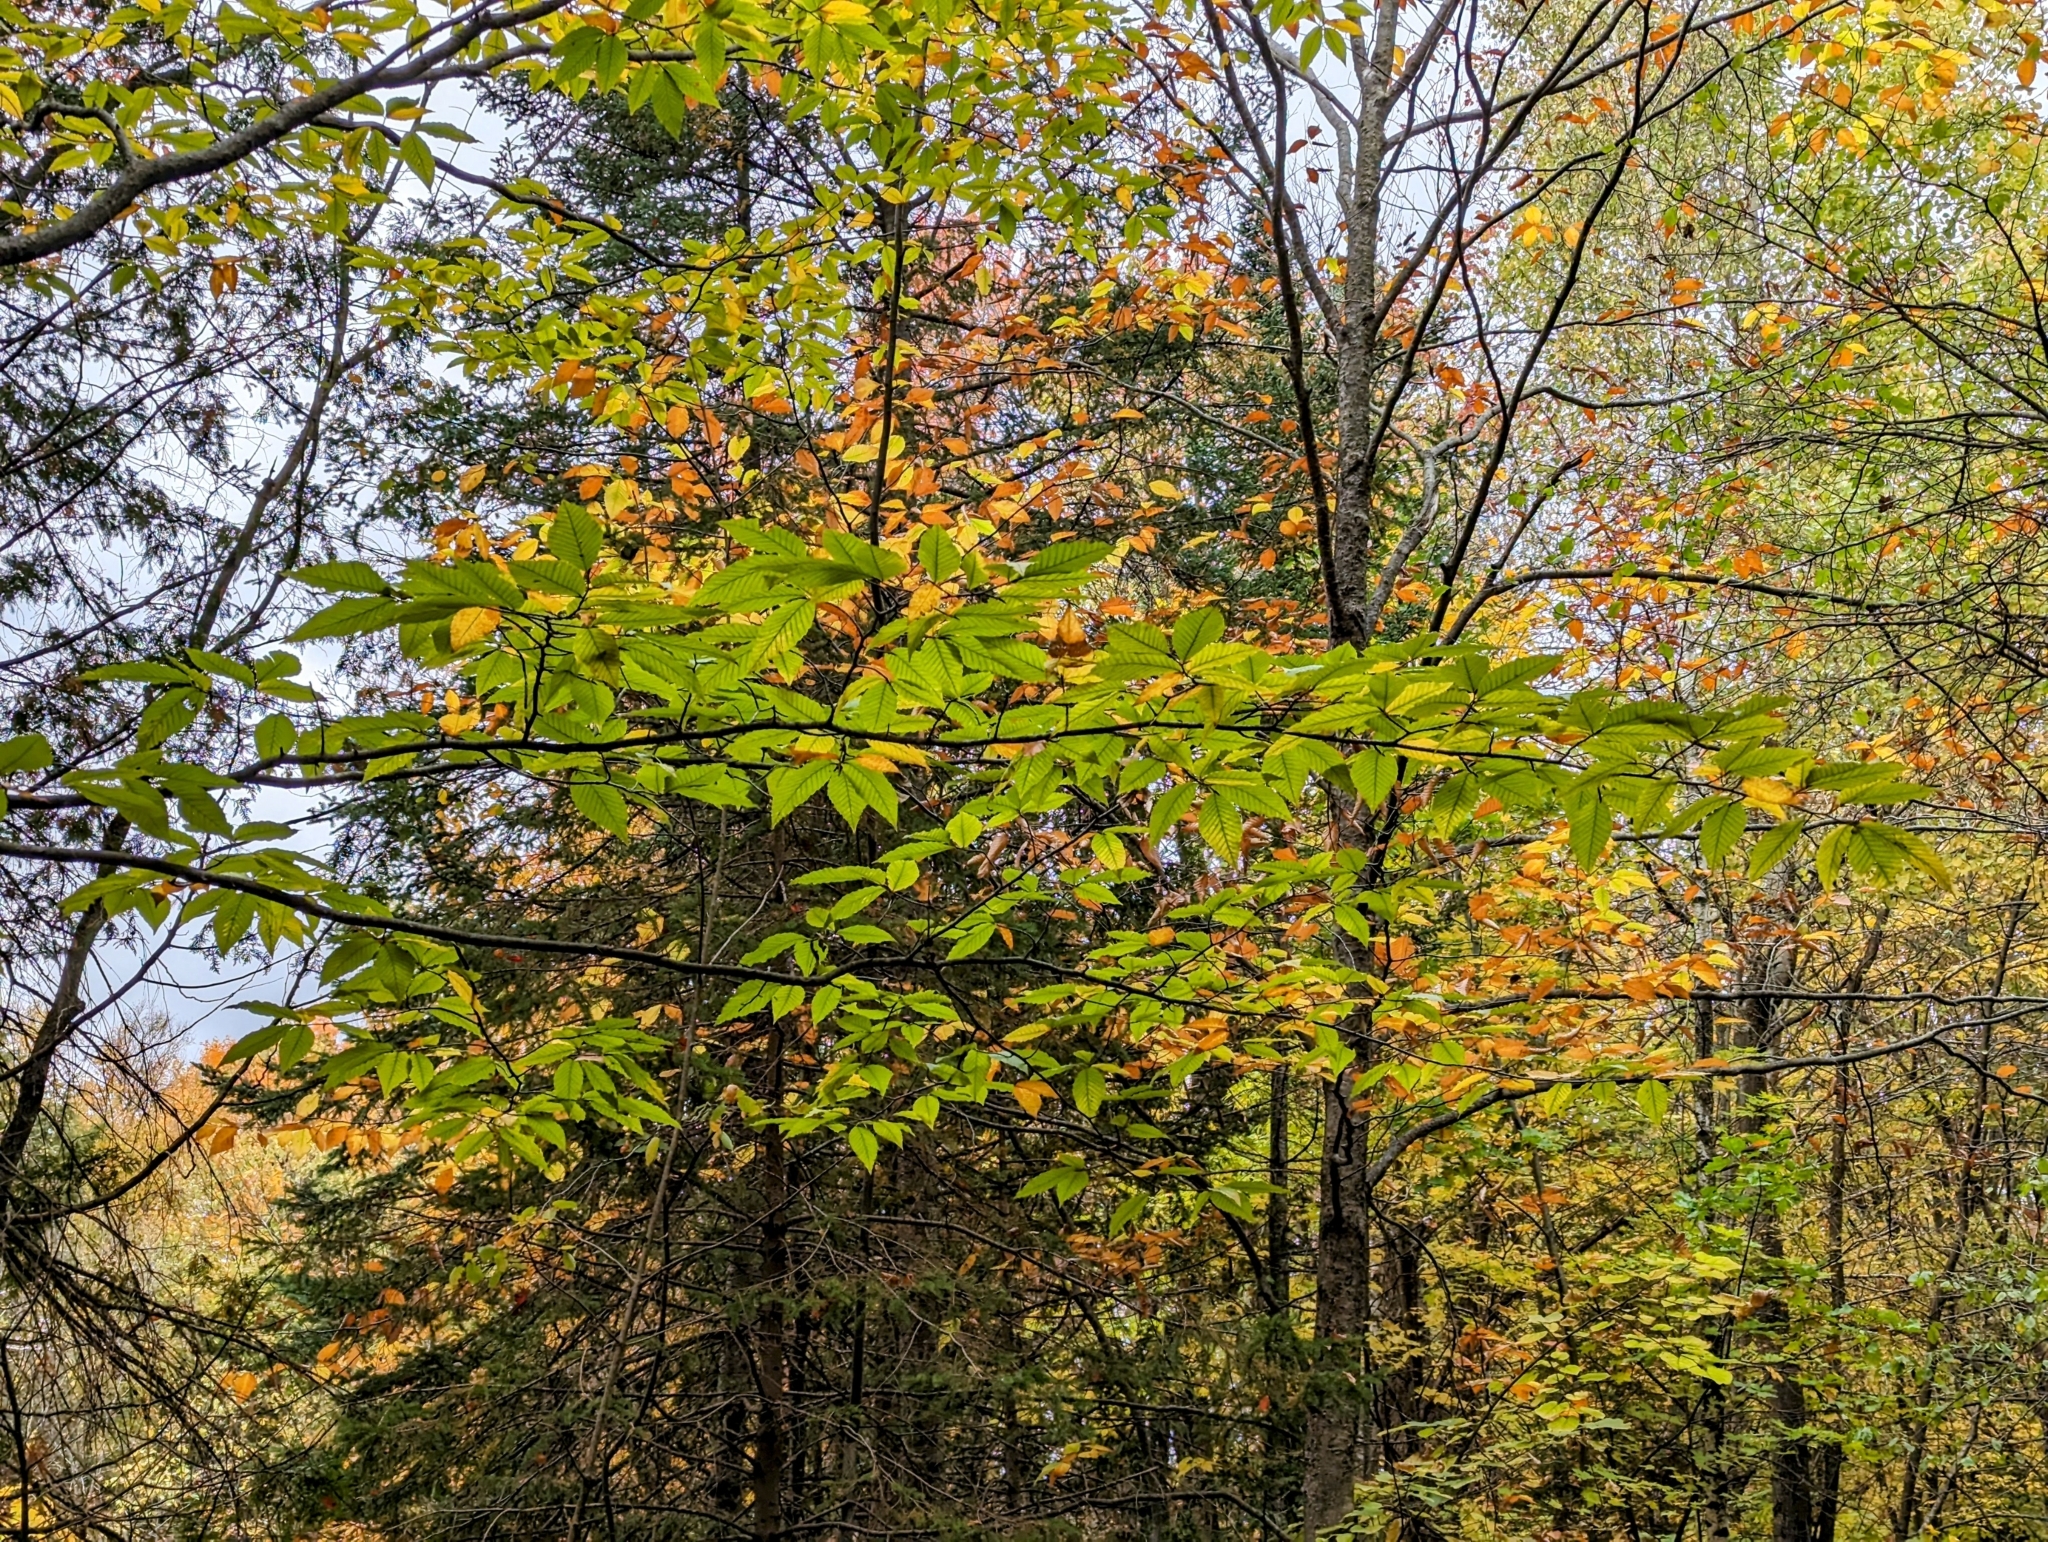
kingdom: Plantae
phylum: Tracheophyta
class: Magnoliopsida
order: Fagales
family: Fagaceae
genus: Fagus
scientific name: Fagus grandifolia
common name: American beech
